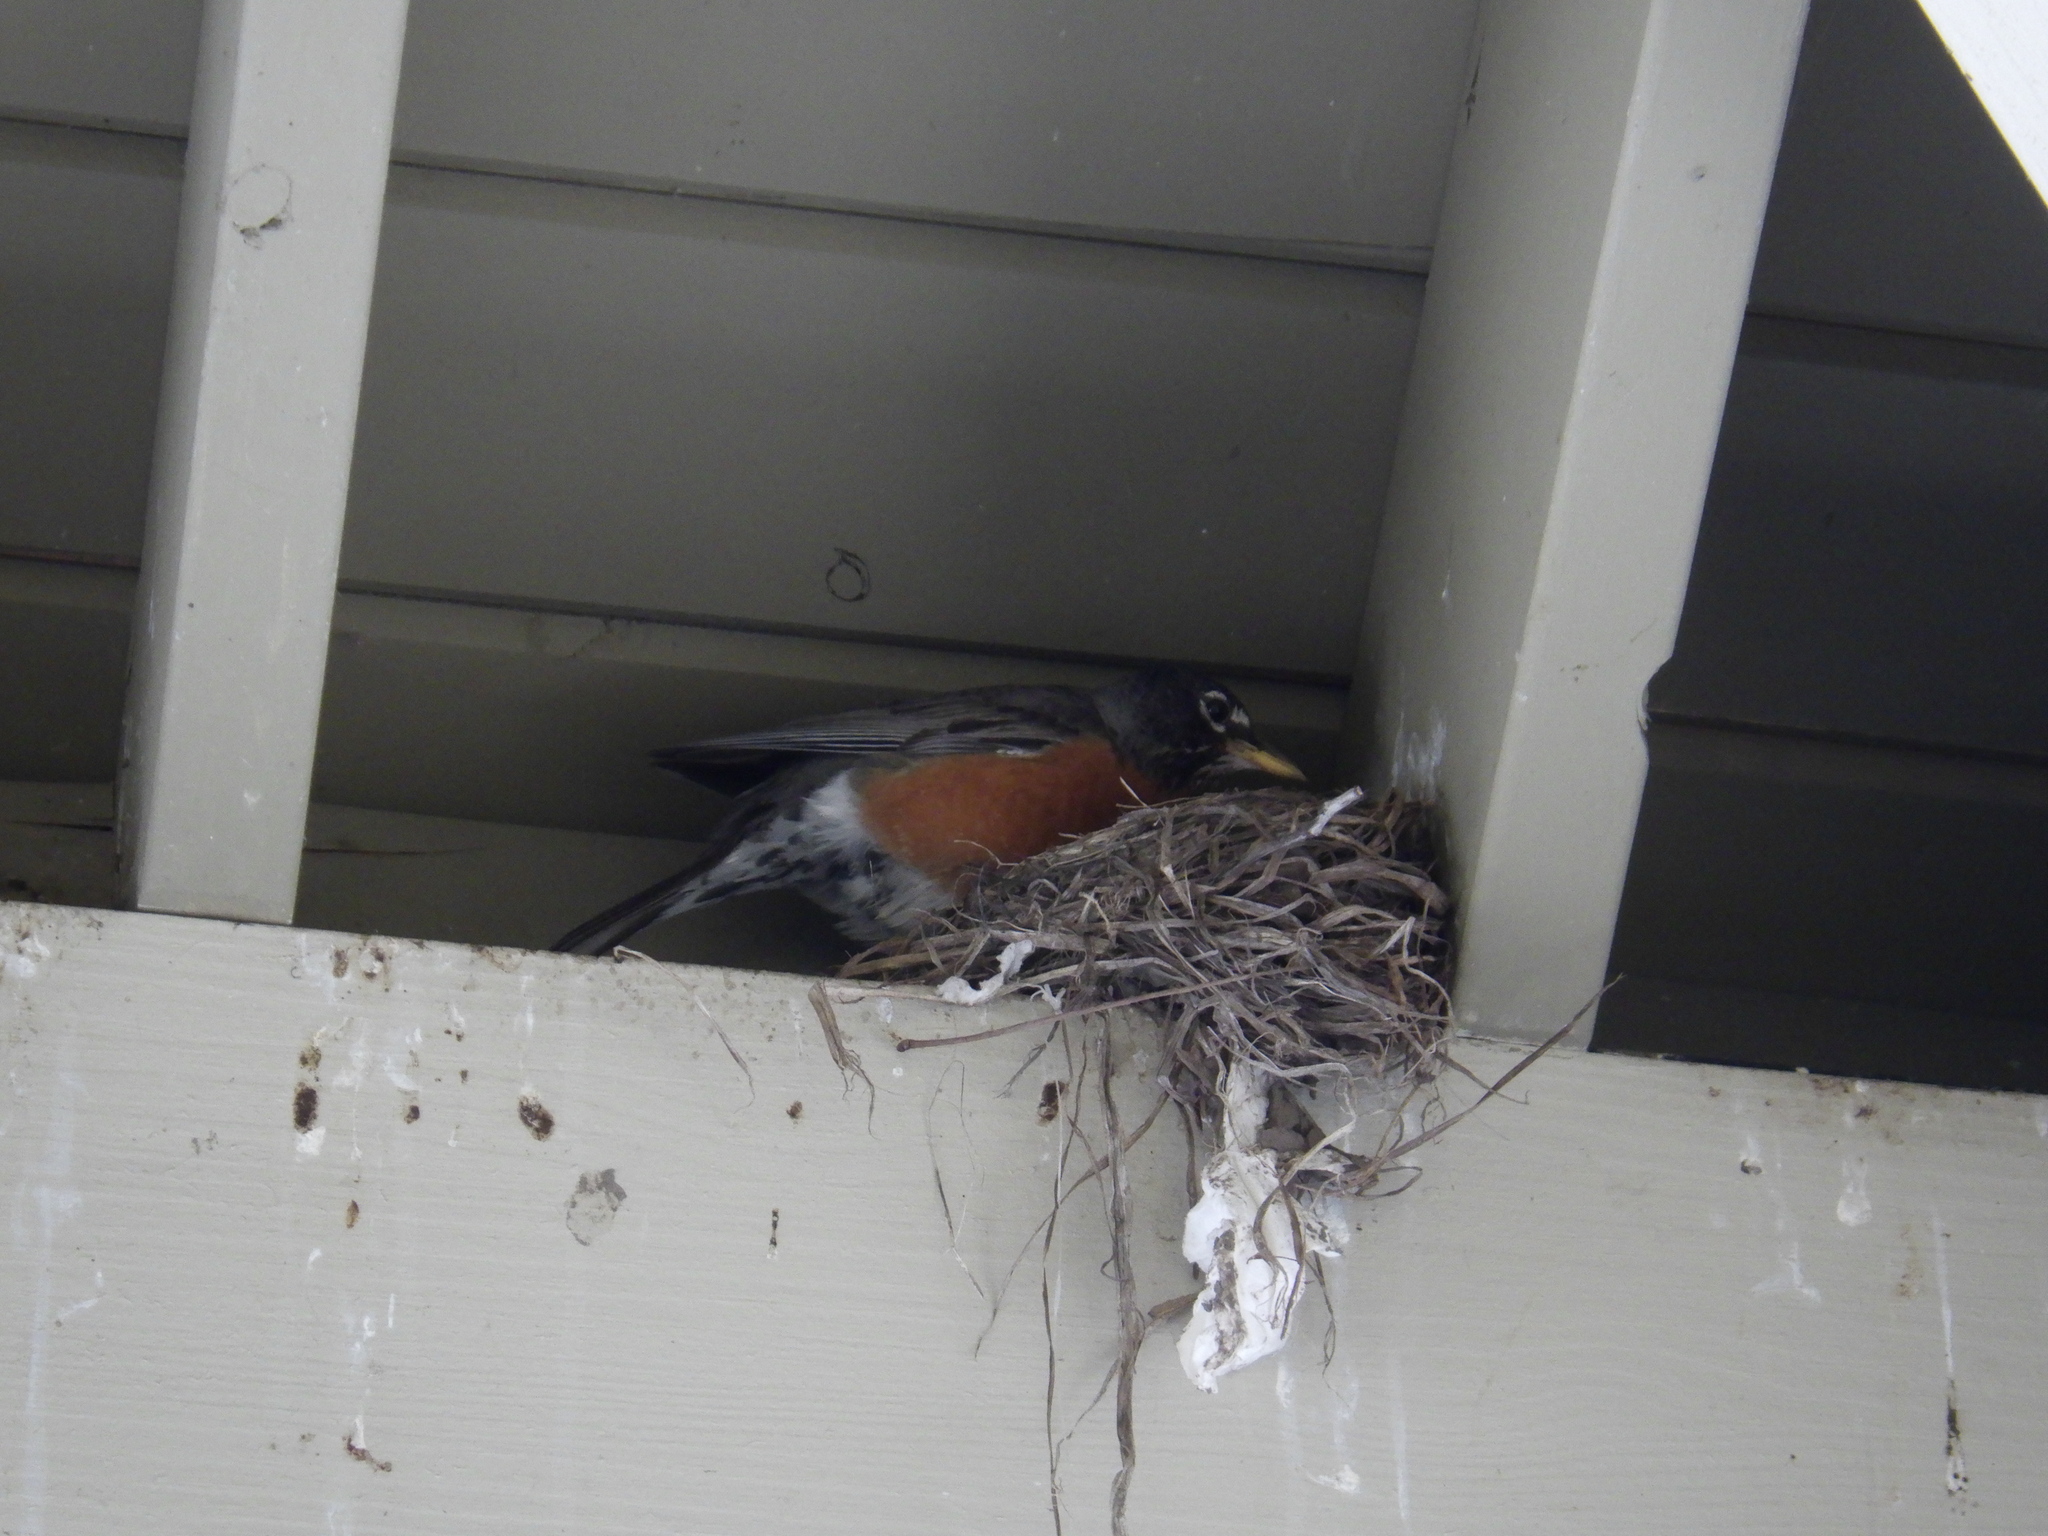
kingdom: Animalia
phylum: Chordata
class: Aves
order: Passeriformes
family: Turdidae
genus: Turdus
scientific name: Turdus migratorius
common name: American robin
